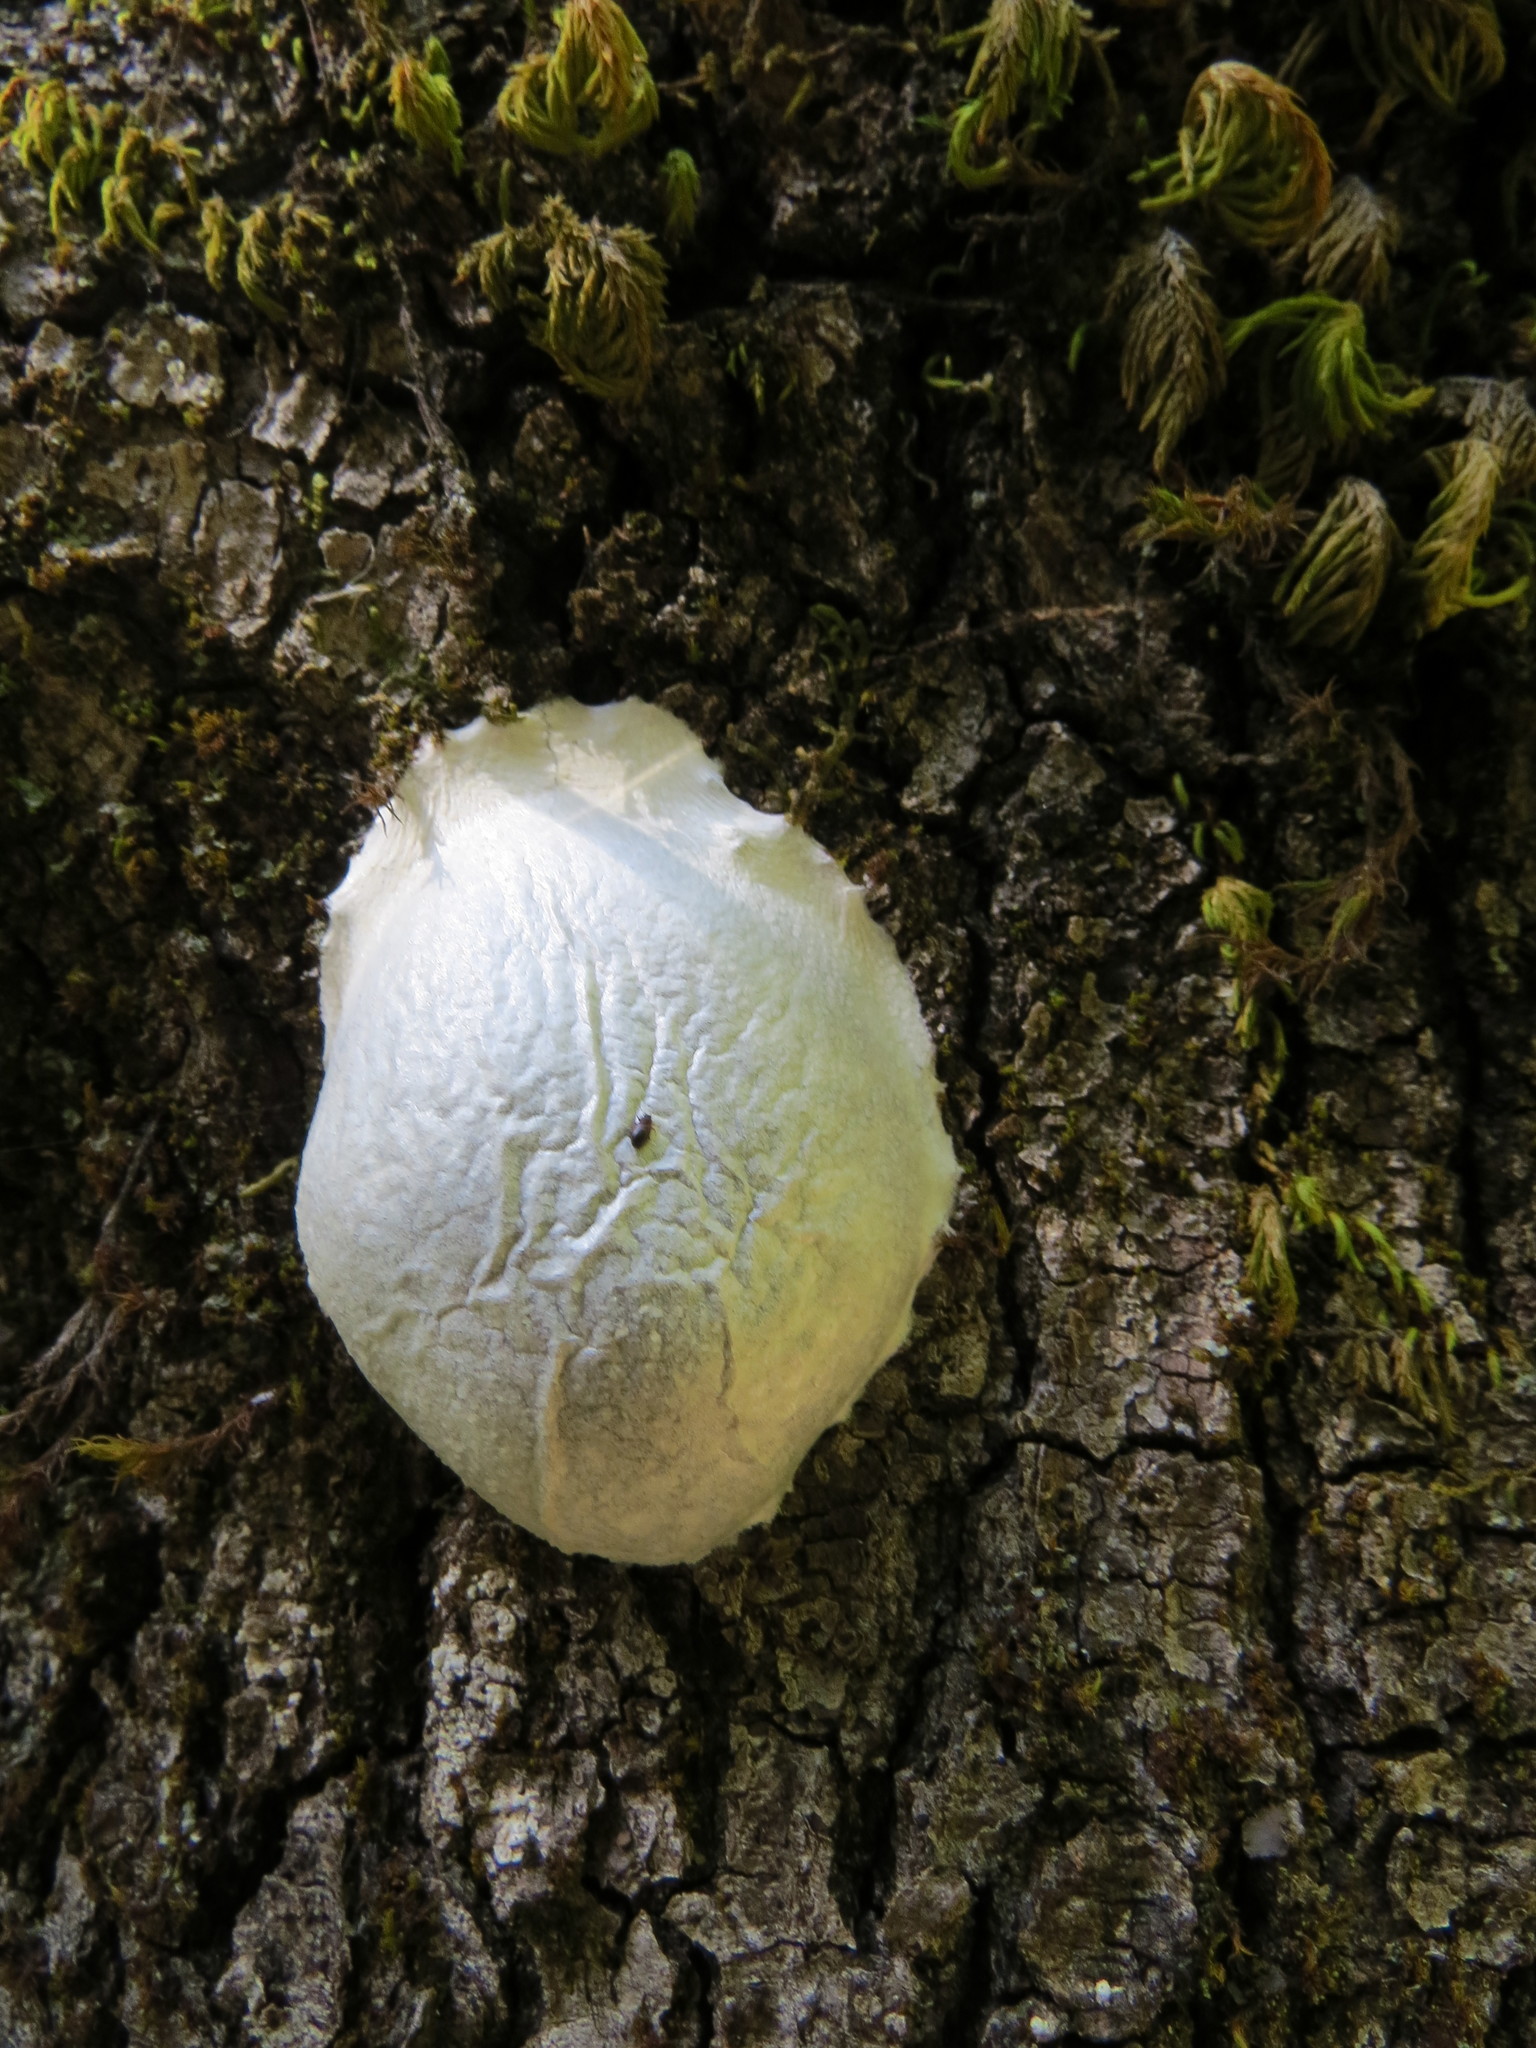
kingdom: Protozoa
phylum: Mycetozoa
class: Myxomycetes
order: Cribrariales
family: Tubiferaceae
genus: Reticularia
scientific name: Reticularia lycoperdon
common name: False puffball
